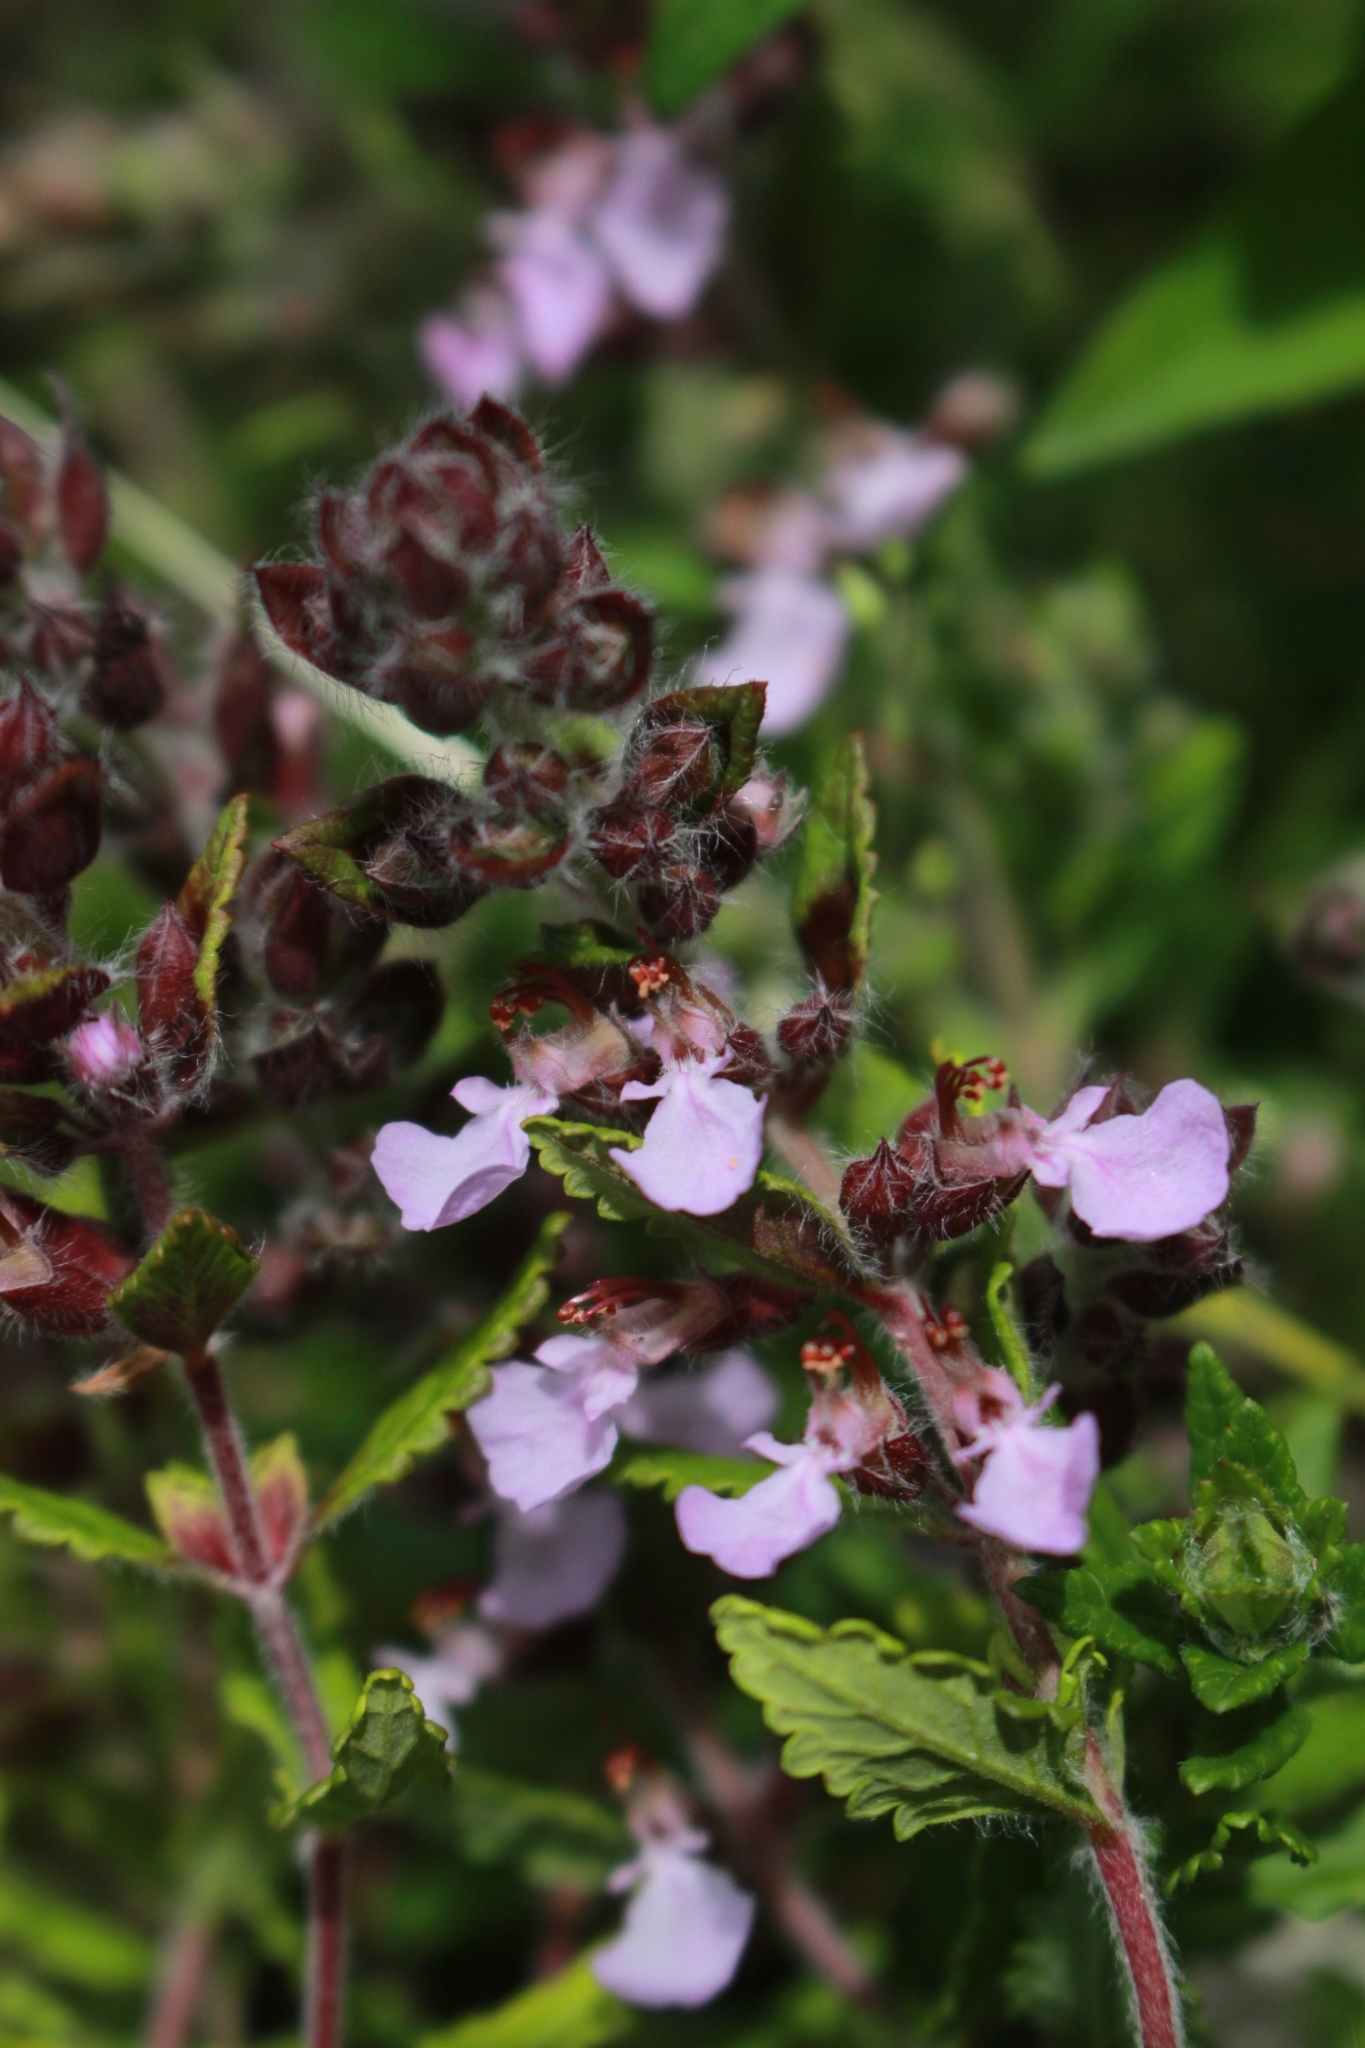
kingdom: Plantae
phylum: Tracheophyta
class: Magnoliopsida
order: Lamiales
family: Lamiaceae
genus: Teucrium
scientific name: Teucrium chamaedrys
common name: Wall germander
